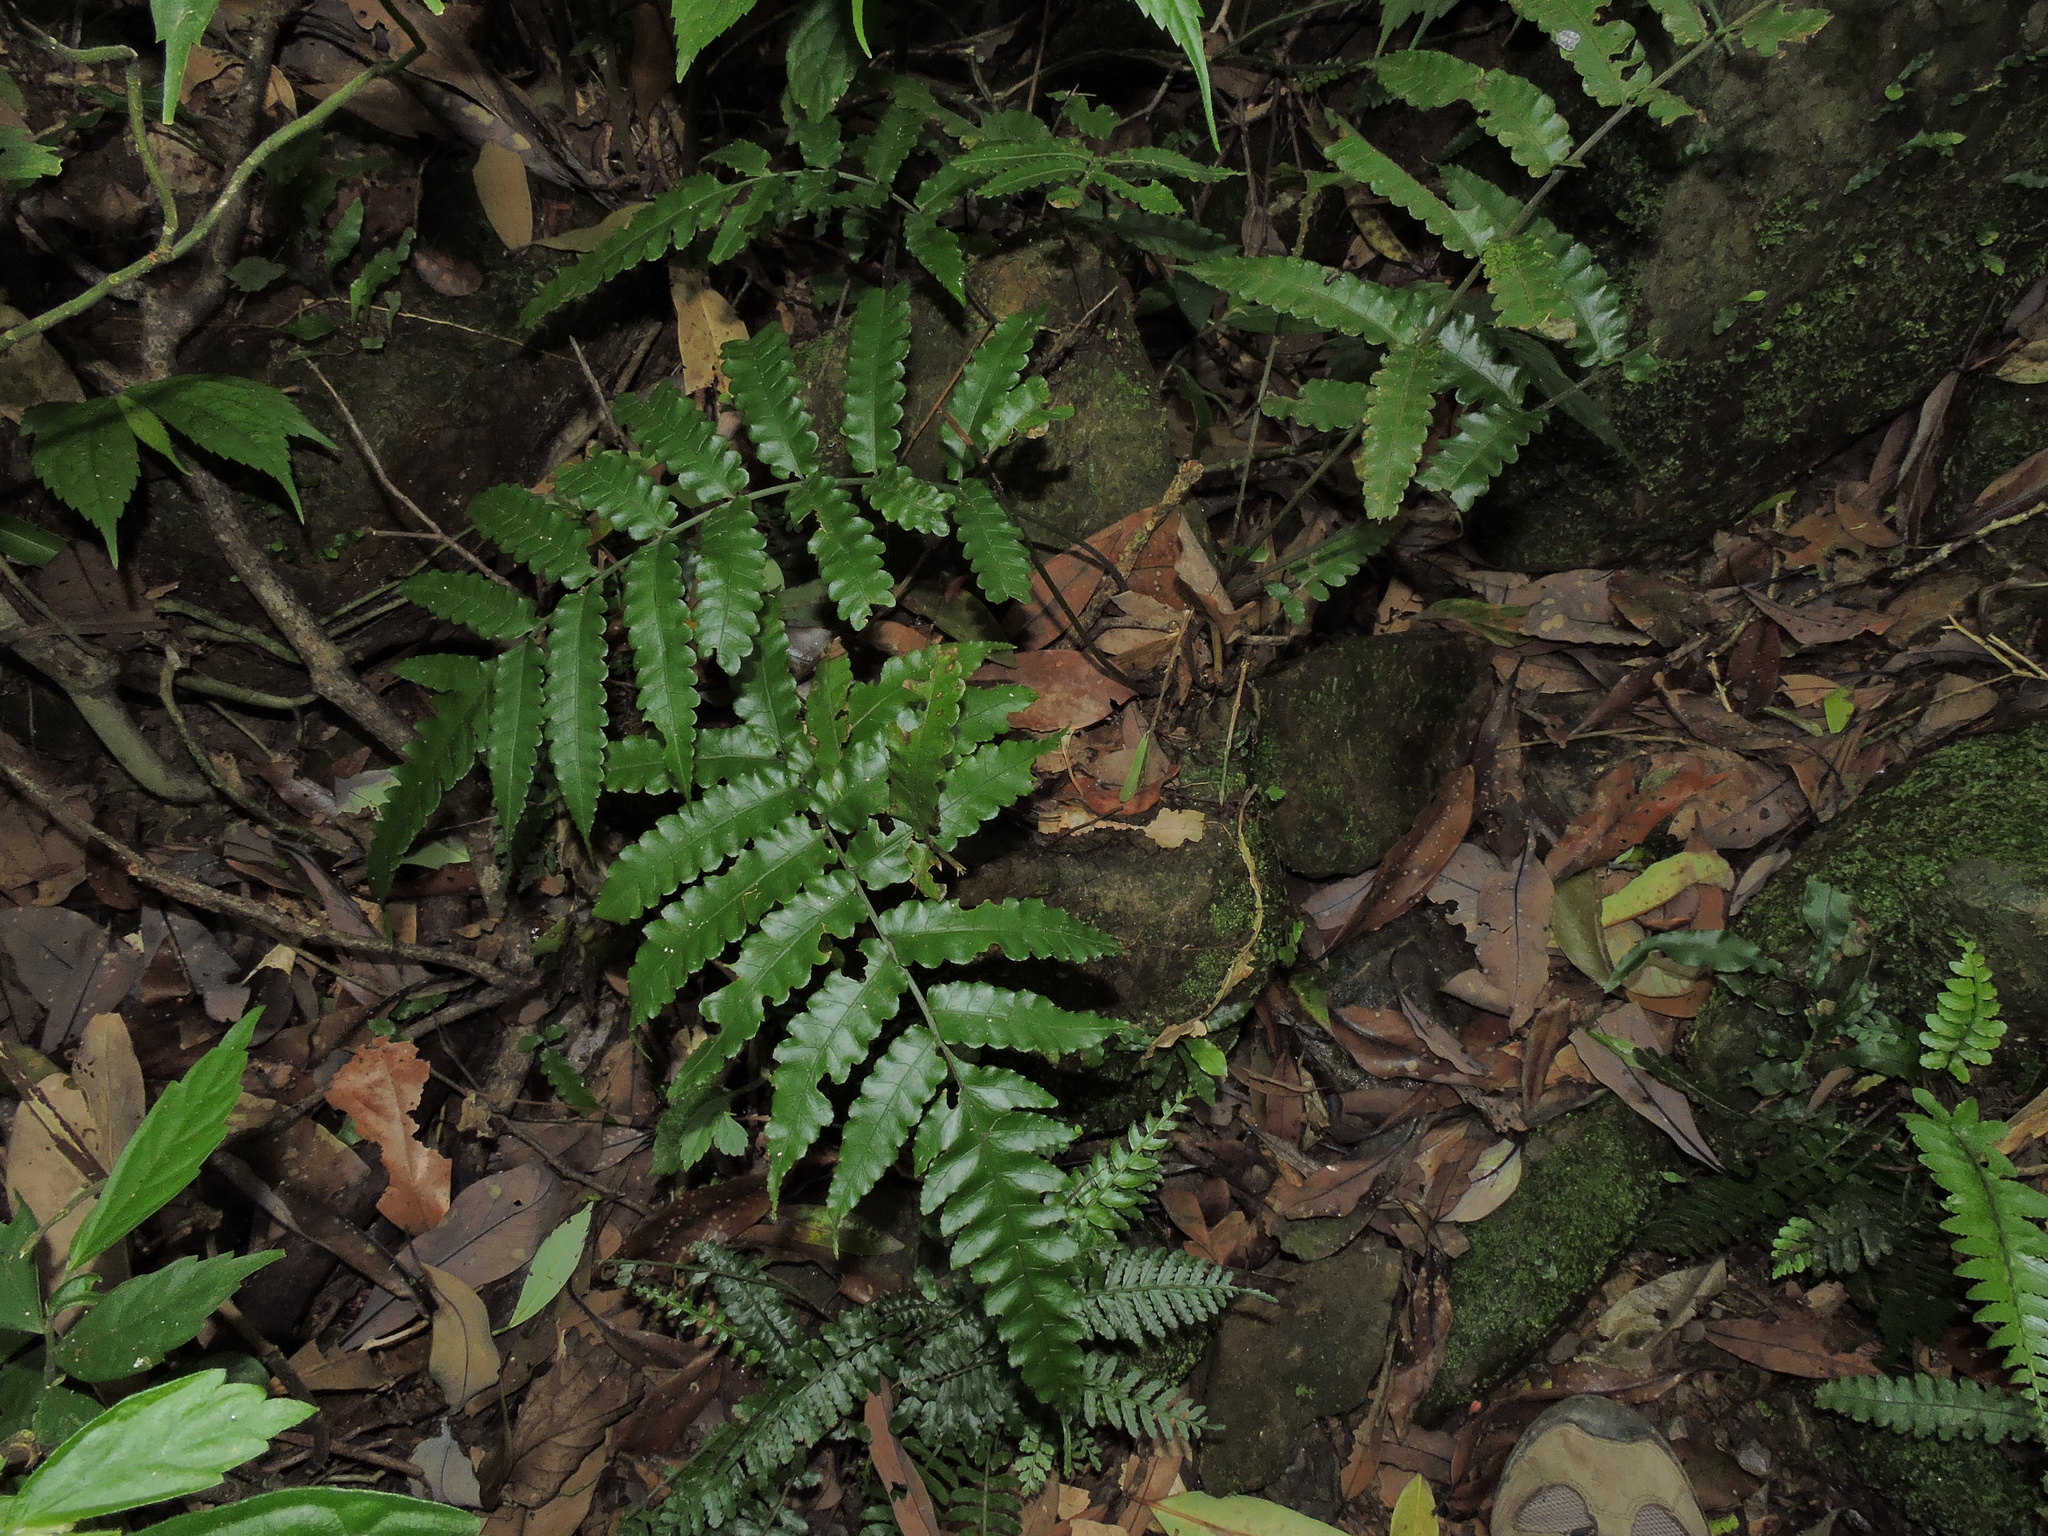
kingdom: Plantae
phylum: Tracheophyta
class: Polypodiopsida
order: Polypodiales
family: Dryopteridaceae
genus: Bolbitis
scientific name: Bolbitis subcordata
